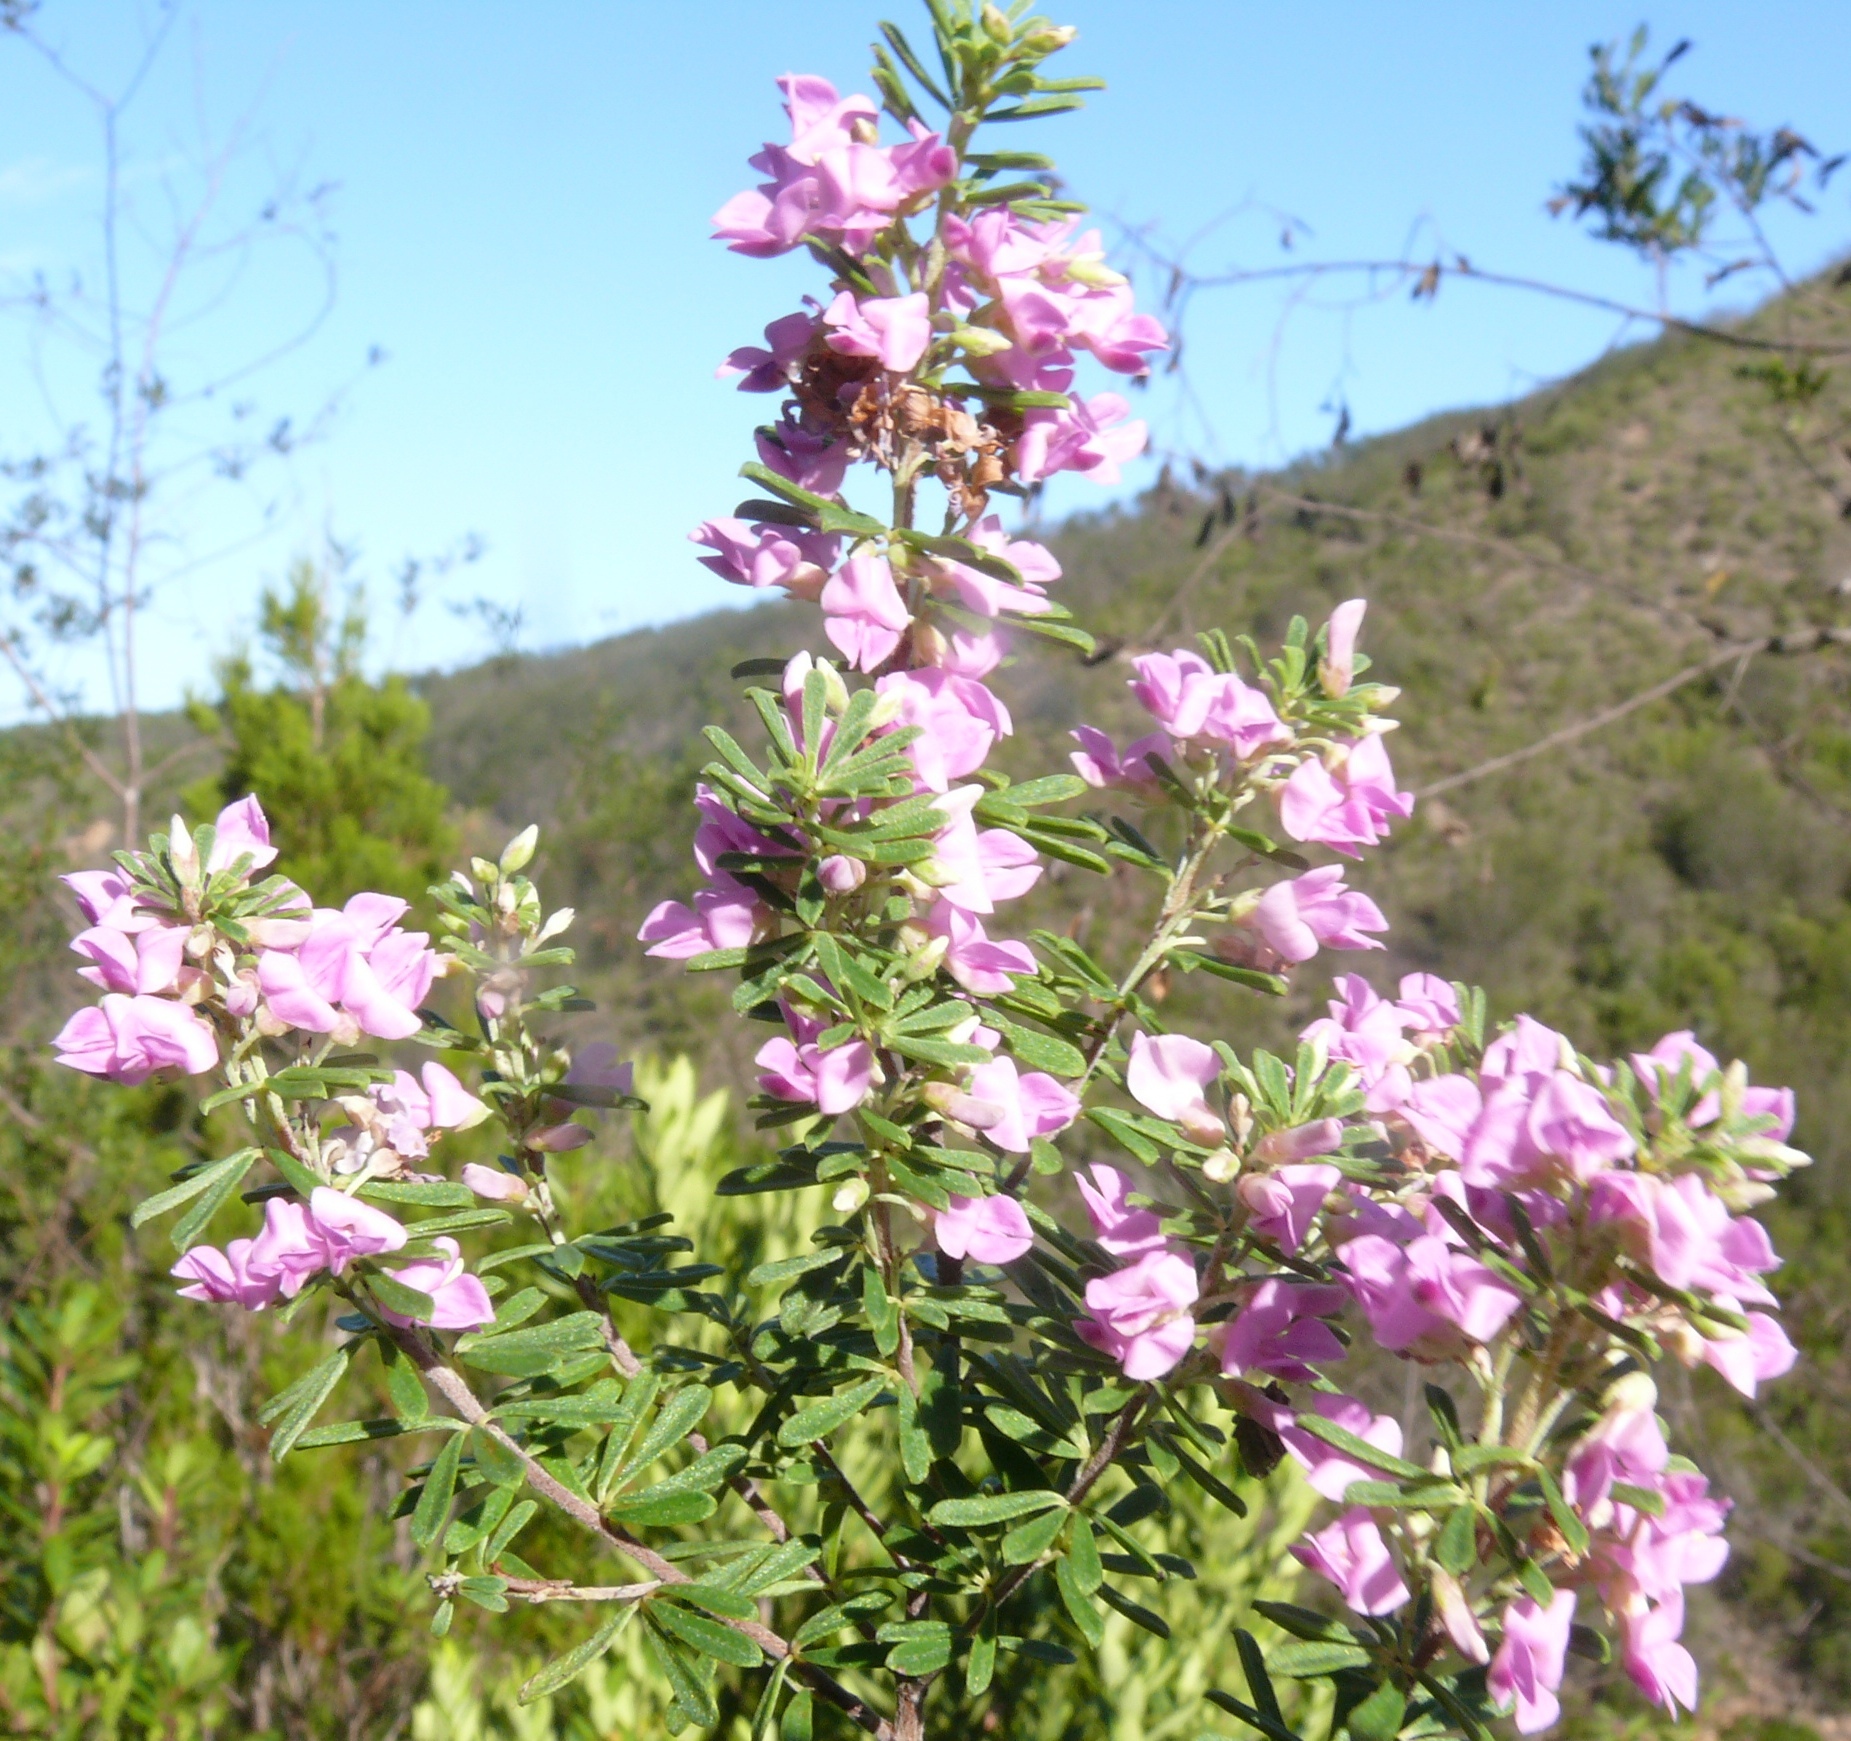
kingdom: Plantae
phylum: Tracheophyta
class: Magnoliopsida
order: Fabales
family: Fabaceae
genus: Indigofera
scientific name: Indigofera flabellata
